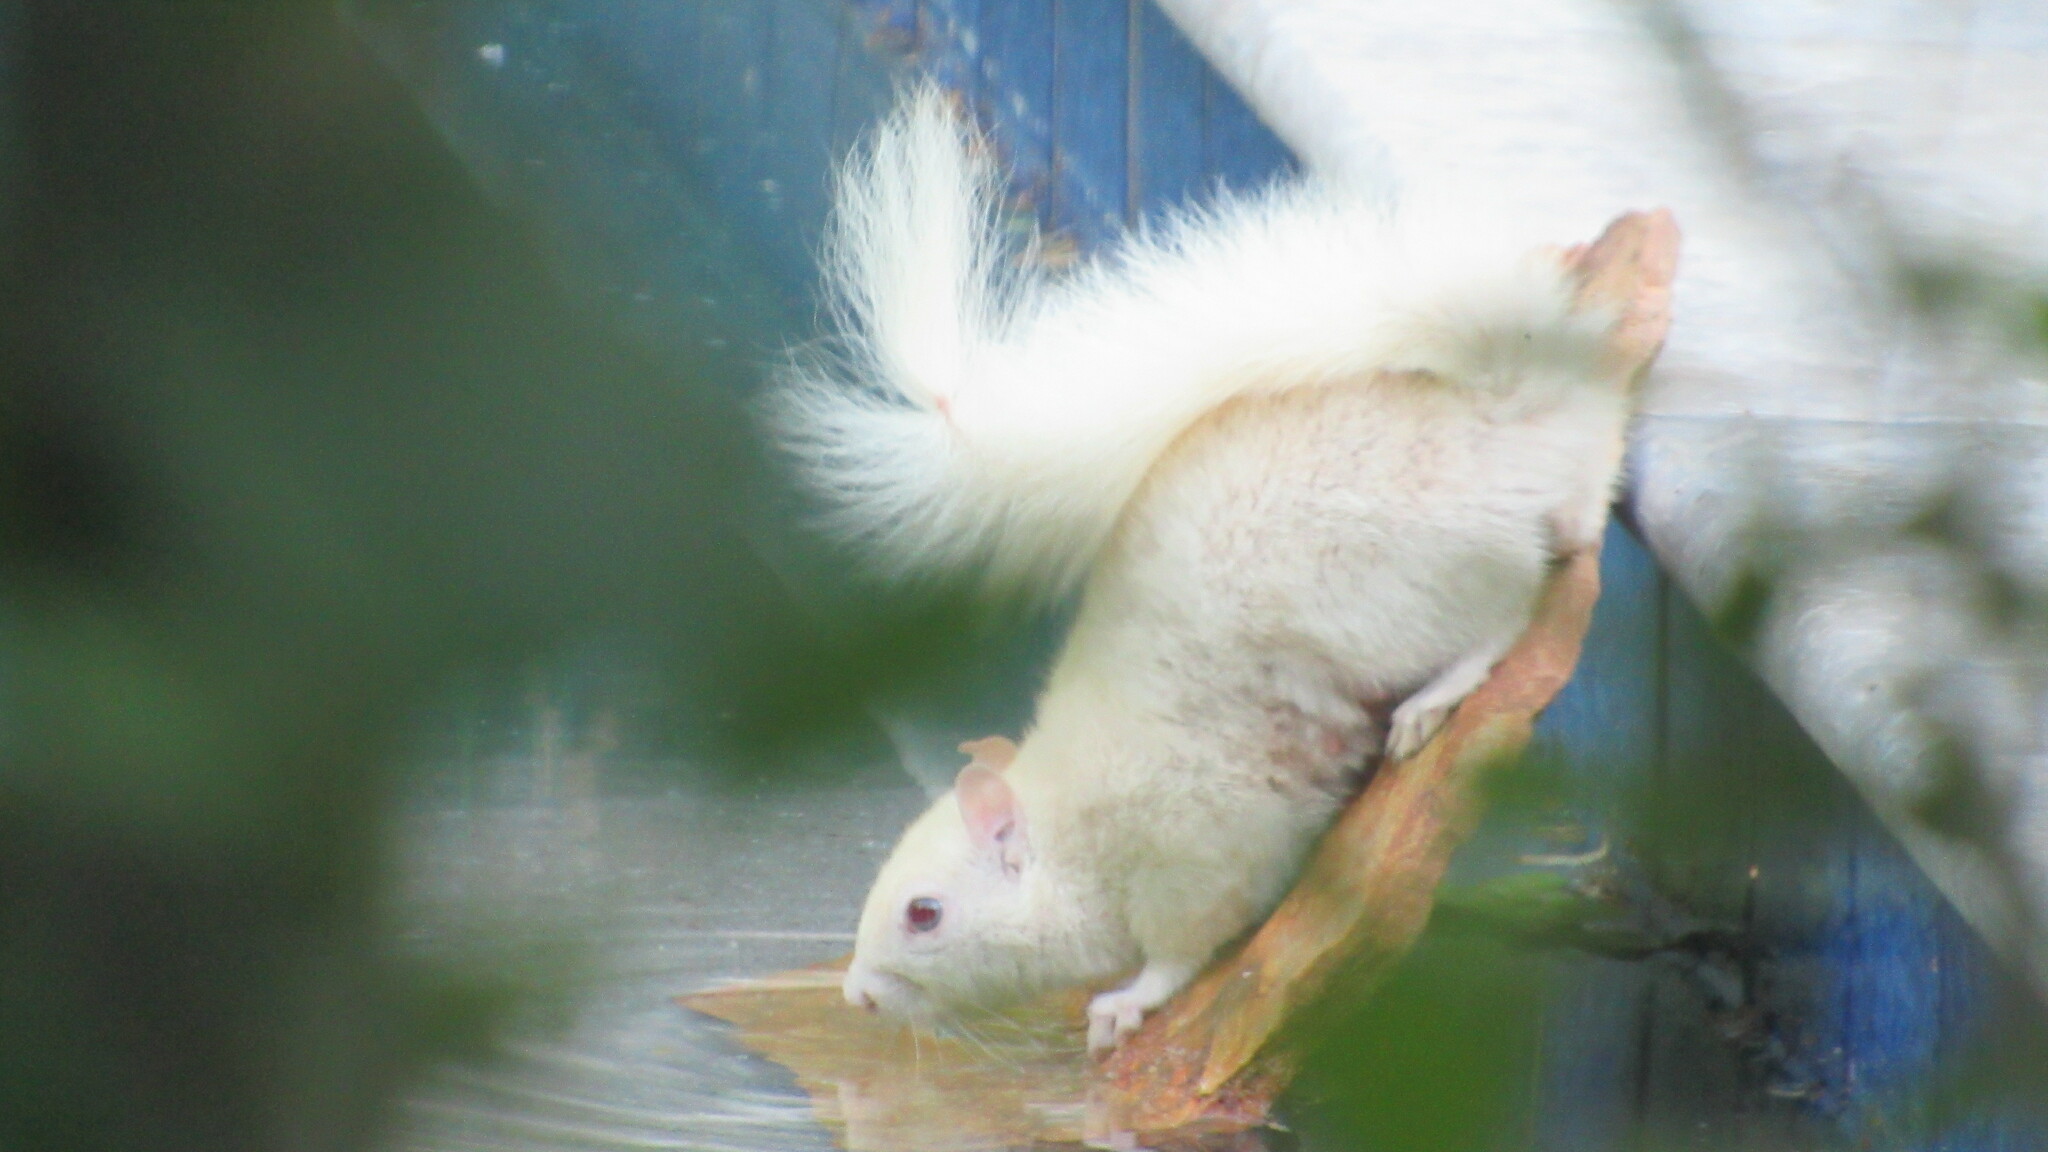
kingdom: Animalia
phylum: Chordata
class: Mammalia
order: Rodentia
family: Sciuridae
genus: Sciurus
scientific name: Sciurus carolinensis
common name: Eastern gray squirrel
